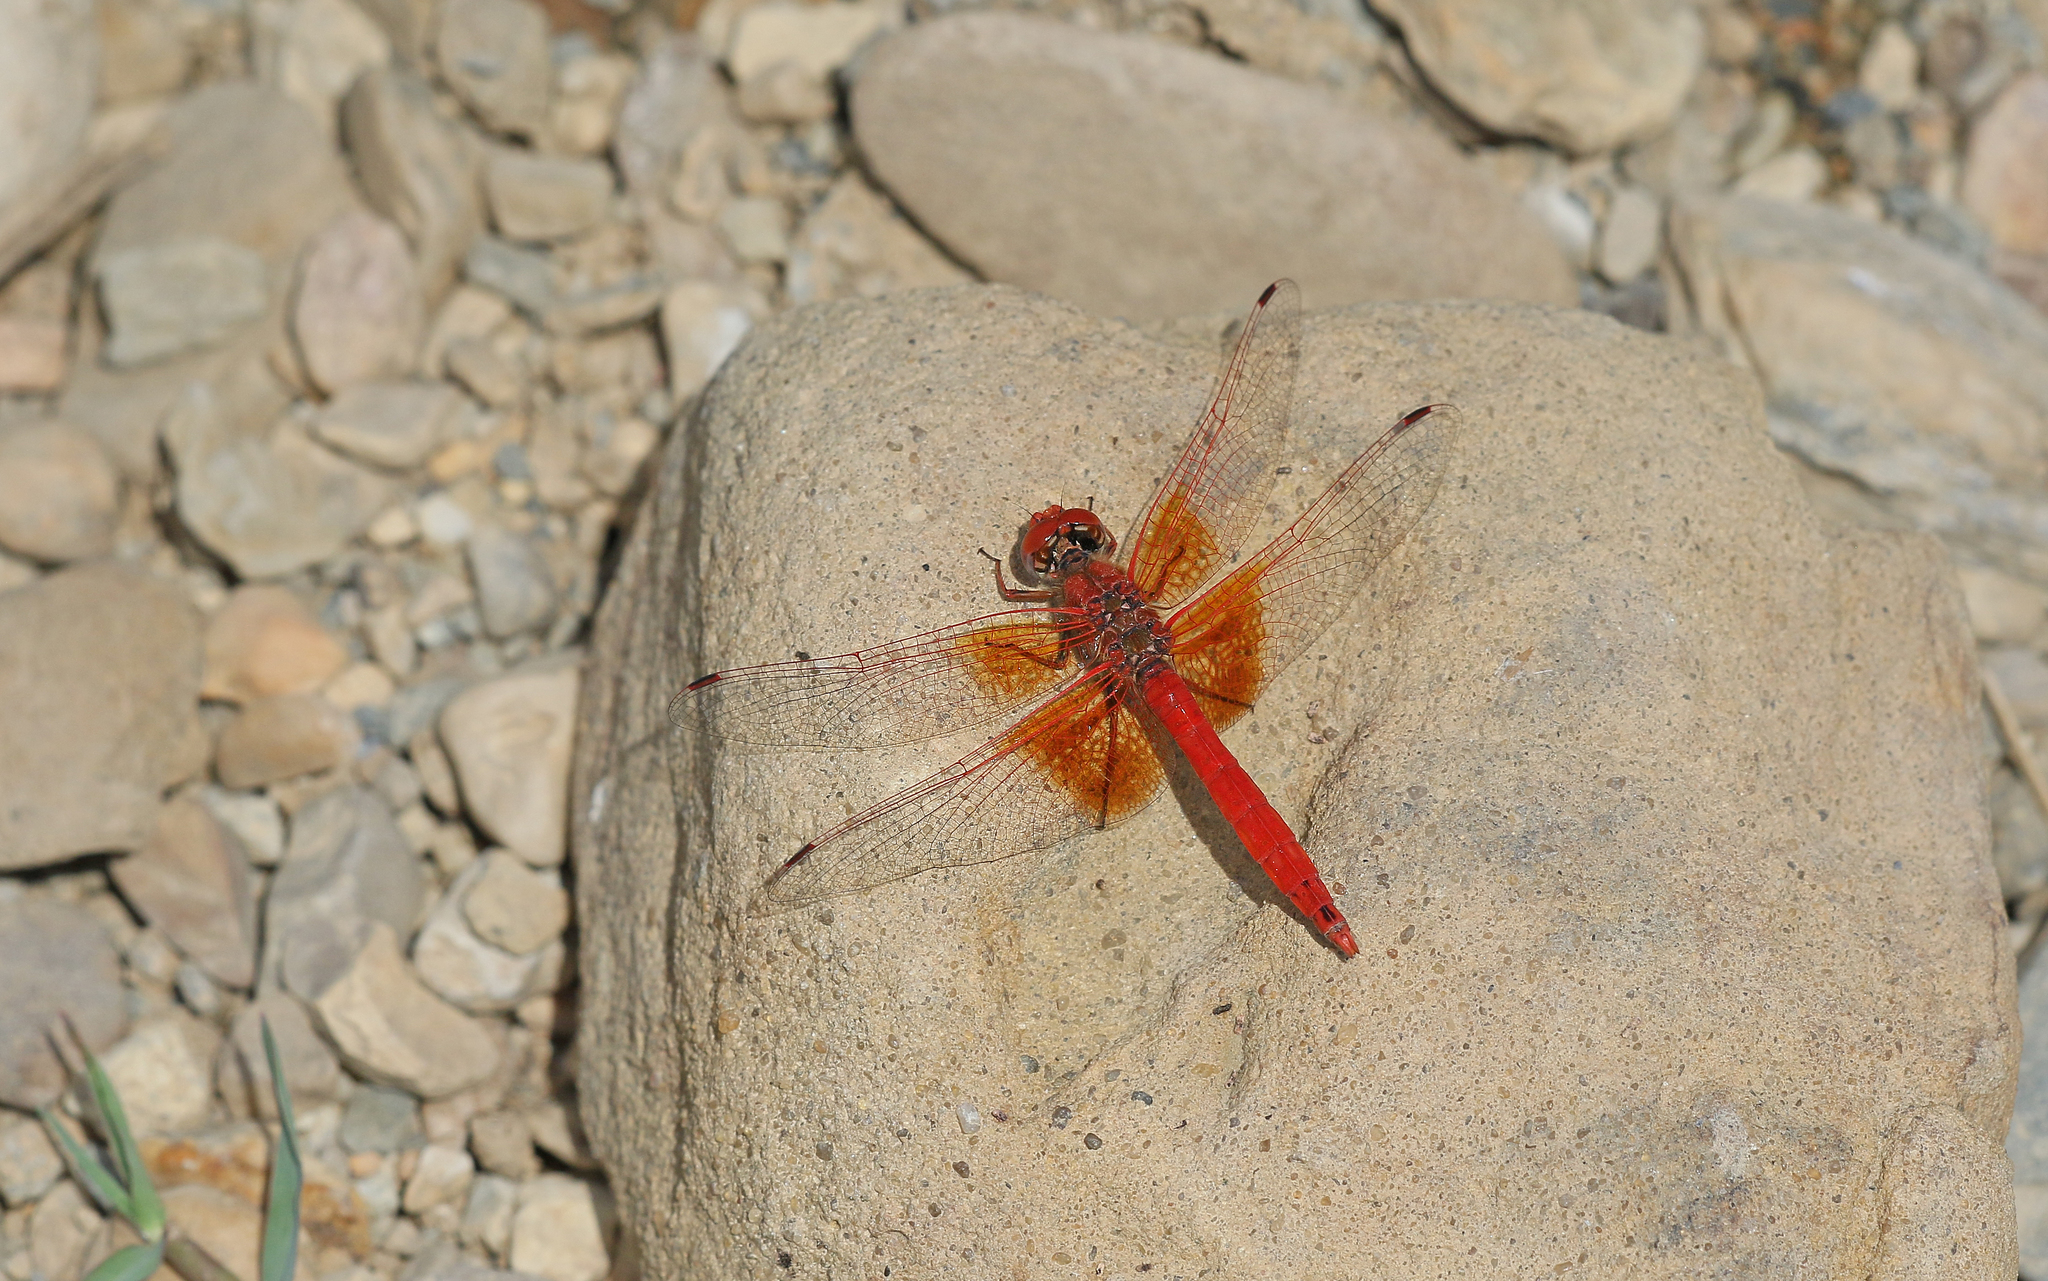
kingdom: Animalia
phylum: Arthropoda
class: Insecta
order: Odonata
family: Libellulidae
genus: Trithemis
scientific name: Trithemis kirbyi
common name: Kirby's dropwing
